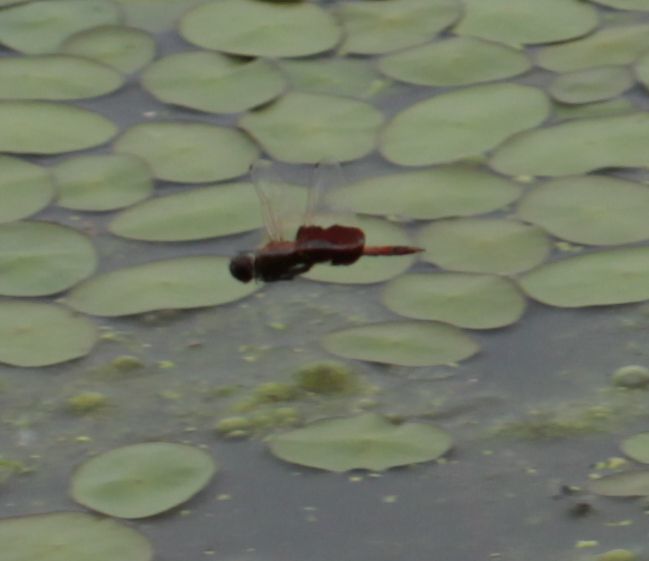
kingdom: Animalia
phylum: Arthropoda
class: Insecta
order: Odonata
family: Libellulidae
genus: Tramea
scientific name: Tramea carolina
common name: Carolina saddlebags
